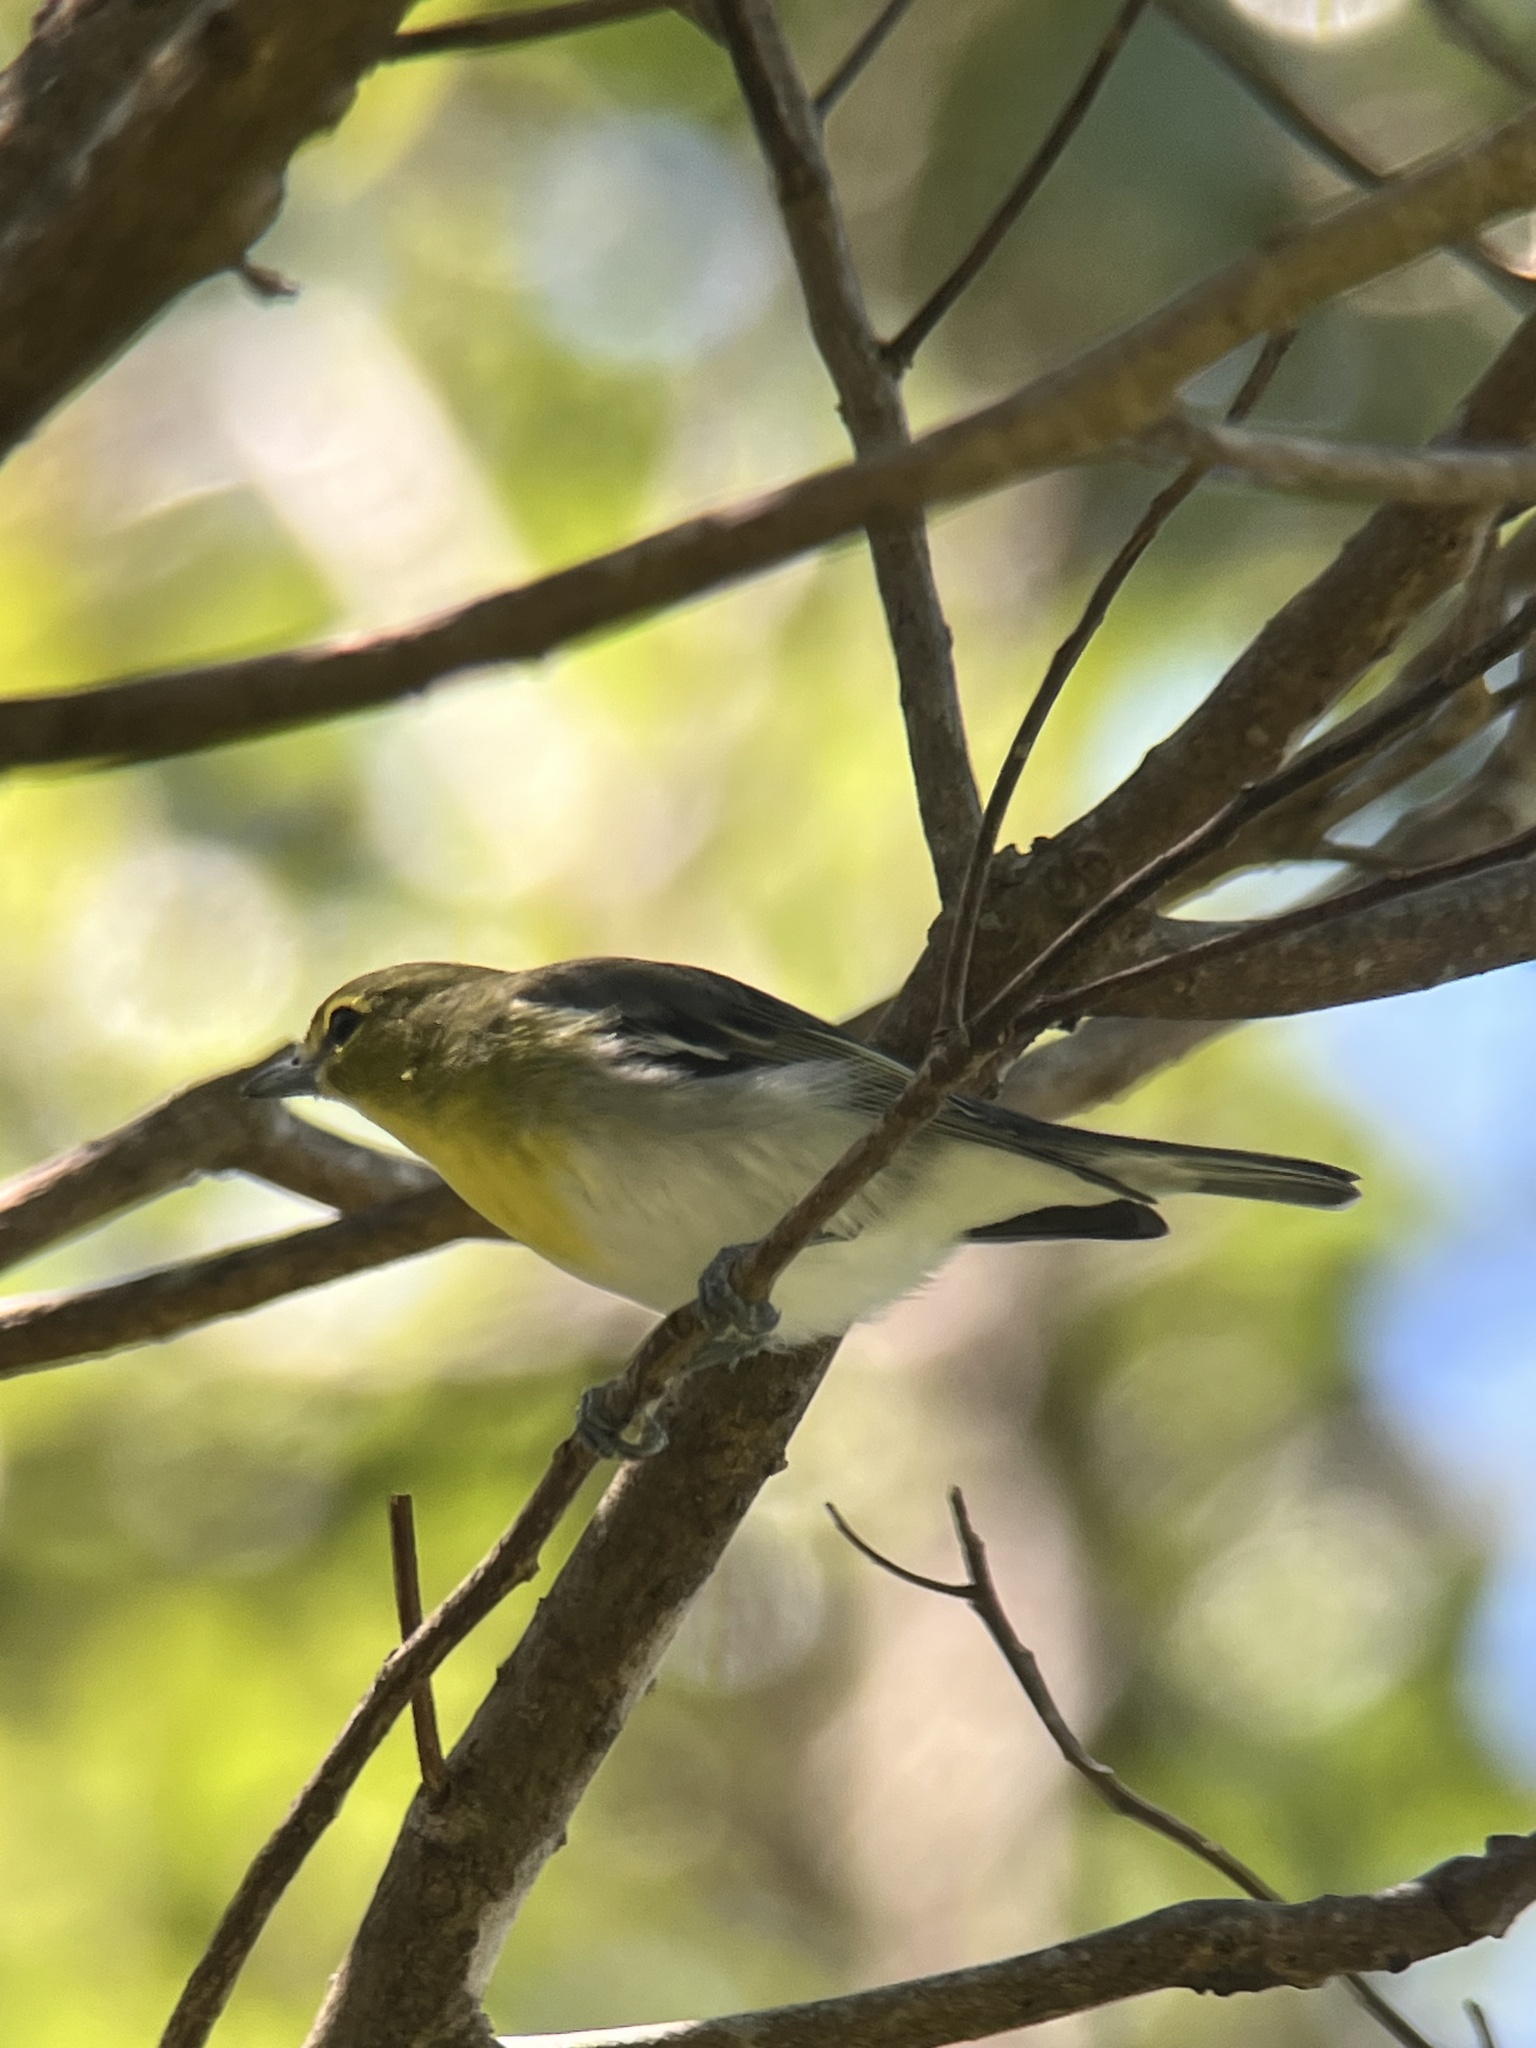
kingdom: Animalia
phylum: Chordata
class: Aves
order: Passeriformes
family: Vireonidae
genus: Vireo
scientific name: Vireo flavifrons
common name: Yellow-throated vireo
